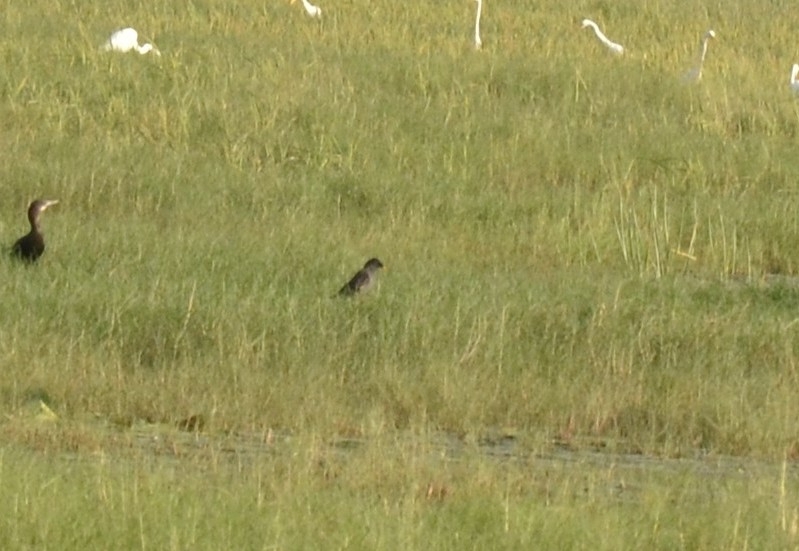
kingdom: Animalia
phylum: Chordata
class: Aves
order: Passeriformes
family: Sturnidae
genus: Acridotheres
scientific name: Acridotheres fuscus
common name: Jungle myna
